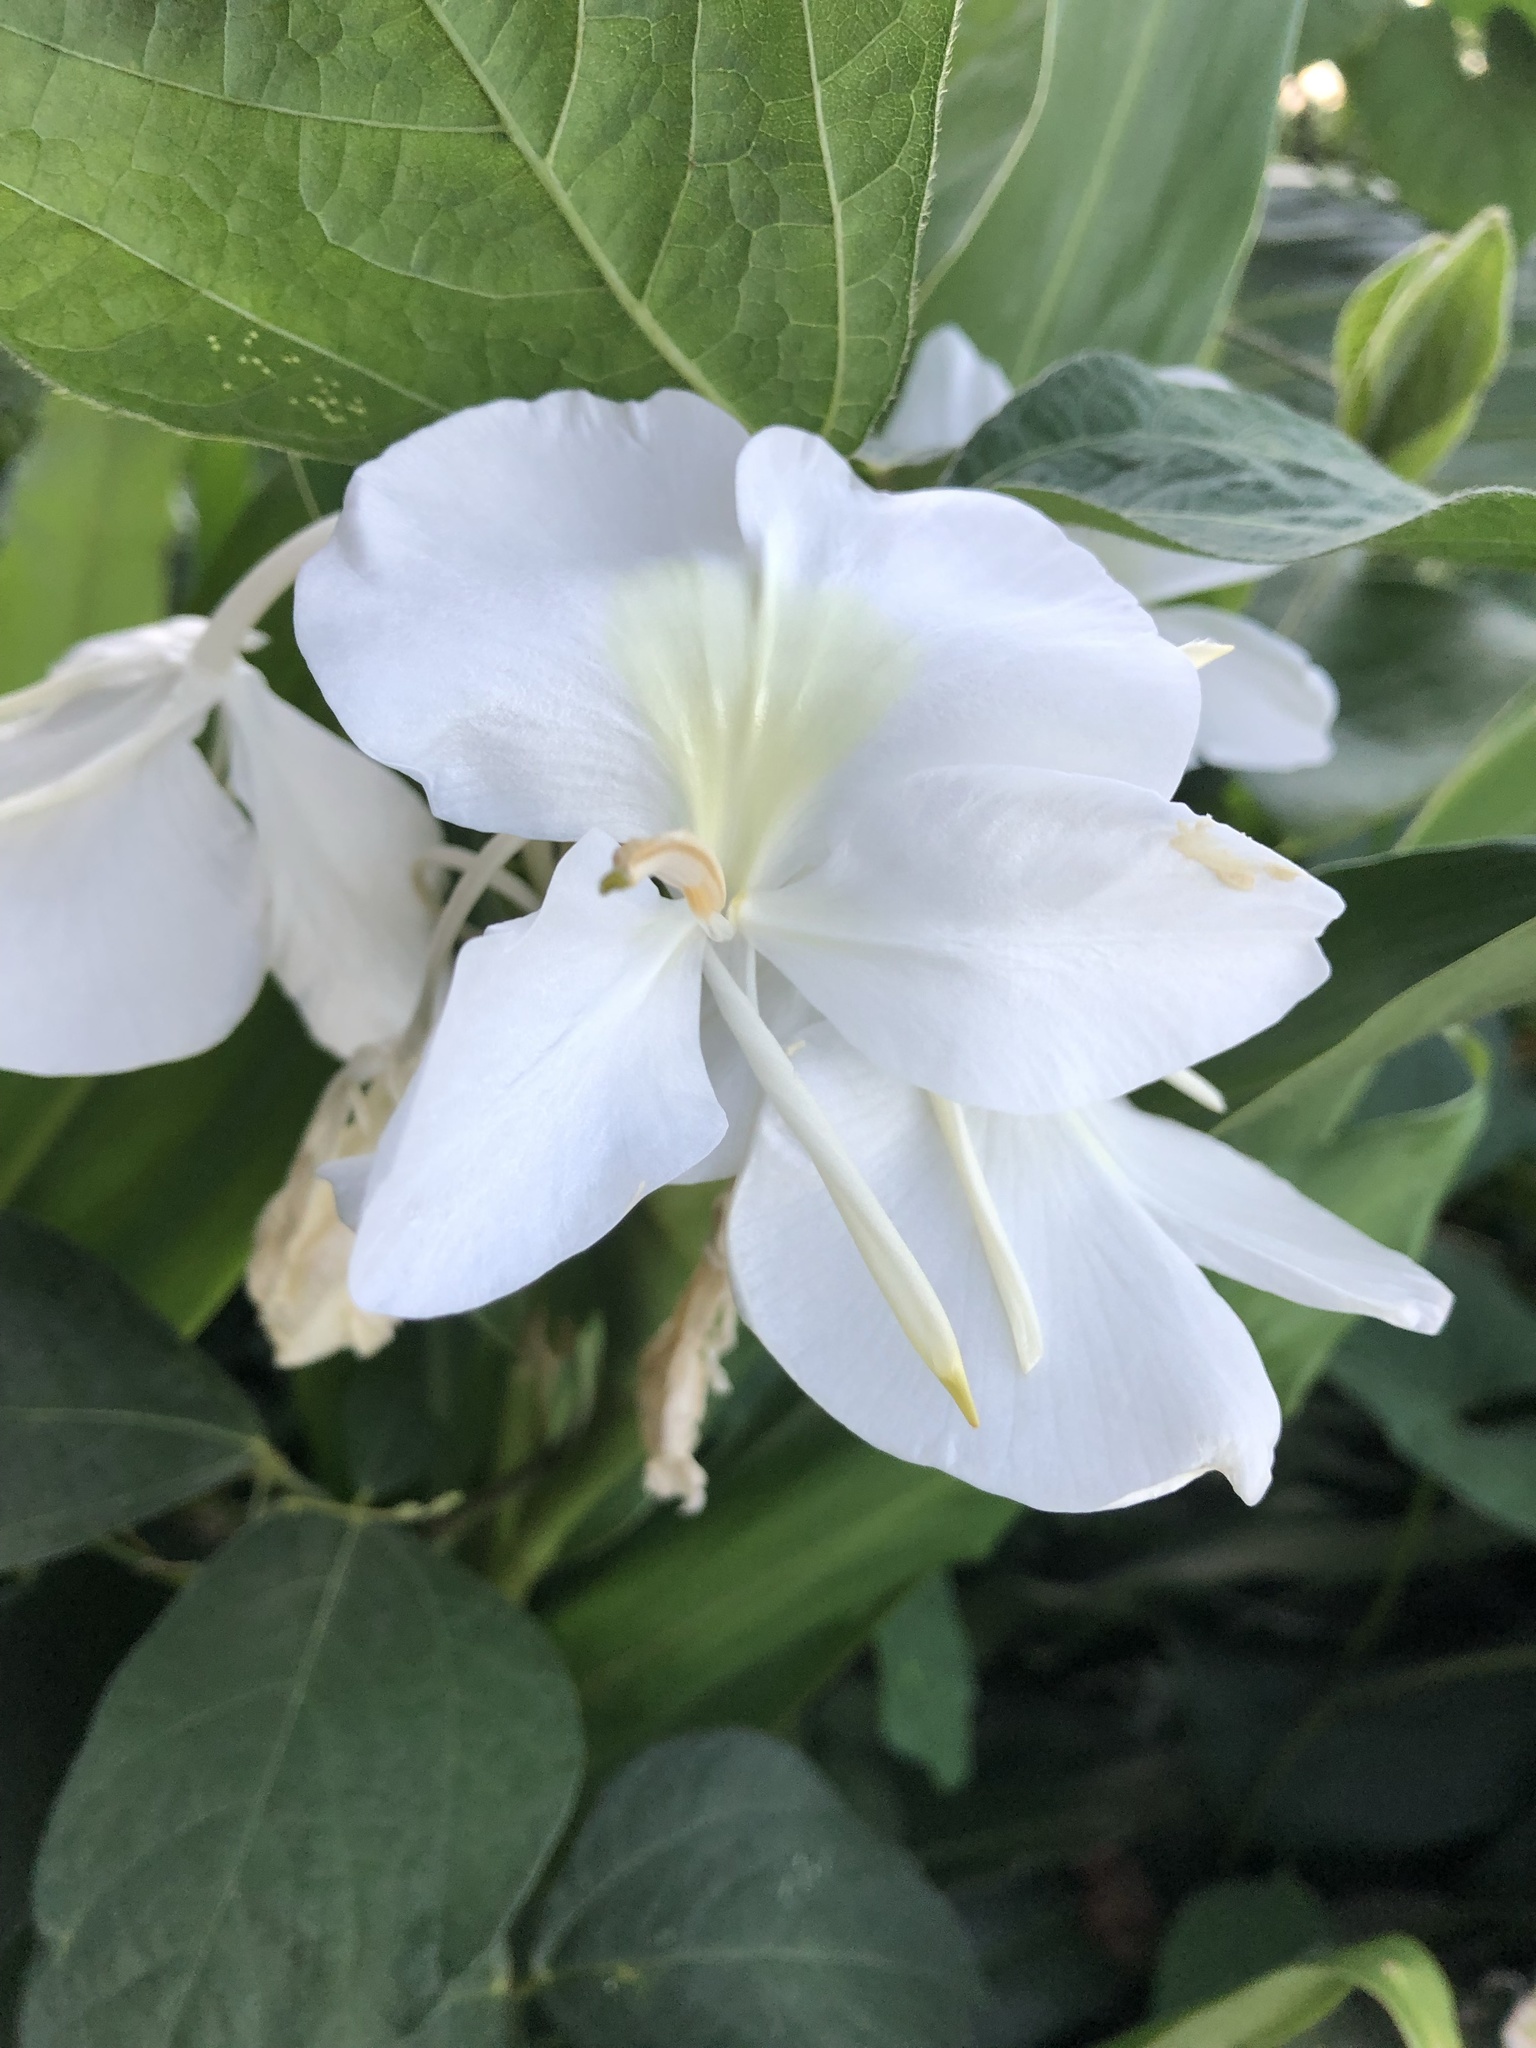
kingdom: Plantae
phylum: Tracheophyta
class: Liliopsida
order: Zingiberales
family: Zingiberaceae
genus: Hedychium
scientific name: Hedychium coronarium
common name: White garland-lily
